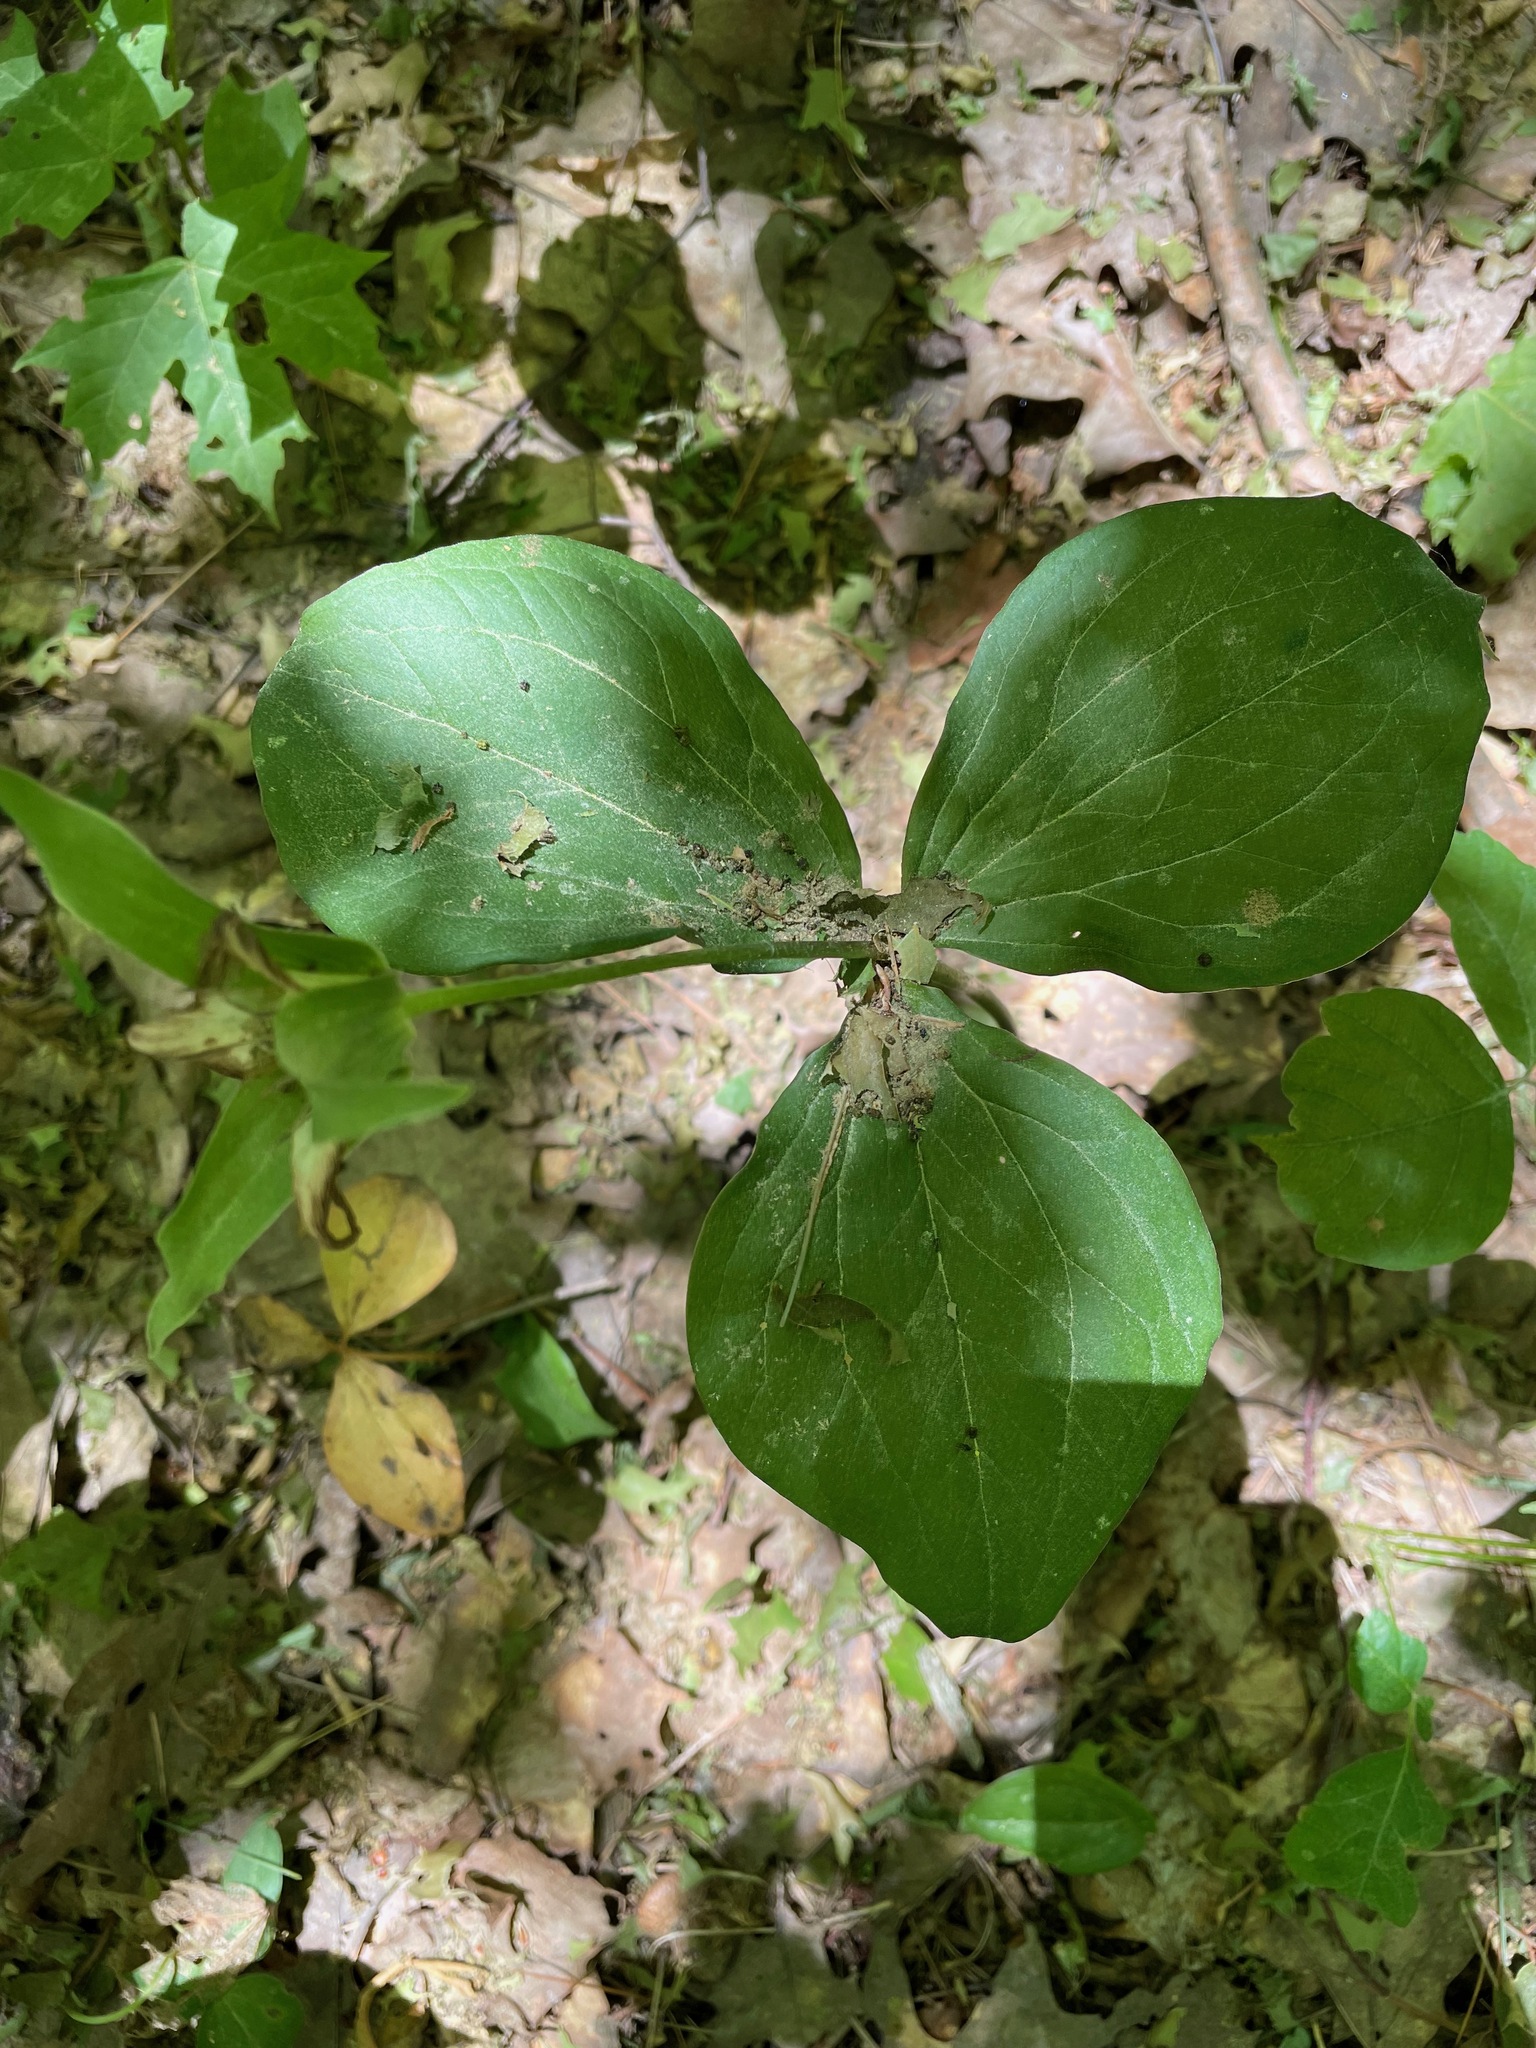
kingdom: Plantae
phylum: Tracheophyta
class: Liliopsida
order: Liliales
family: Melanthiaceae
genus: Trillium
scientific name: Trillium grandiflorum
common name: Great white trillium
